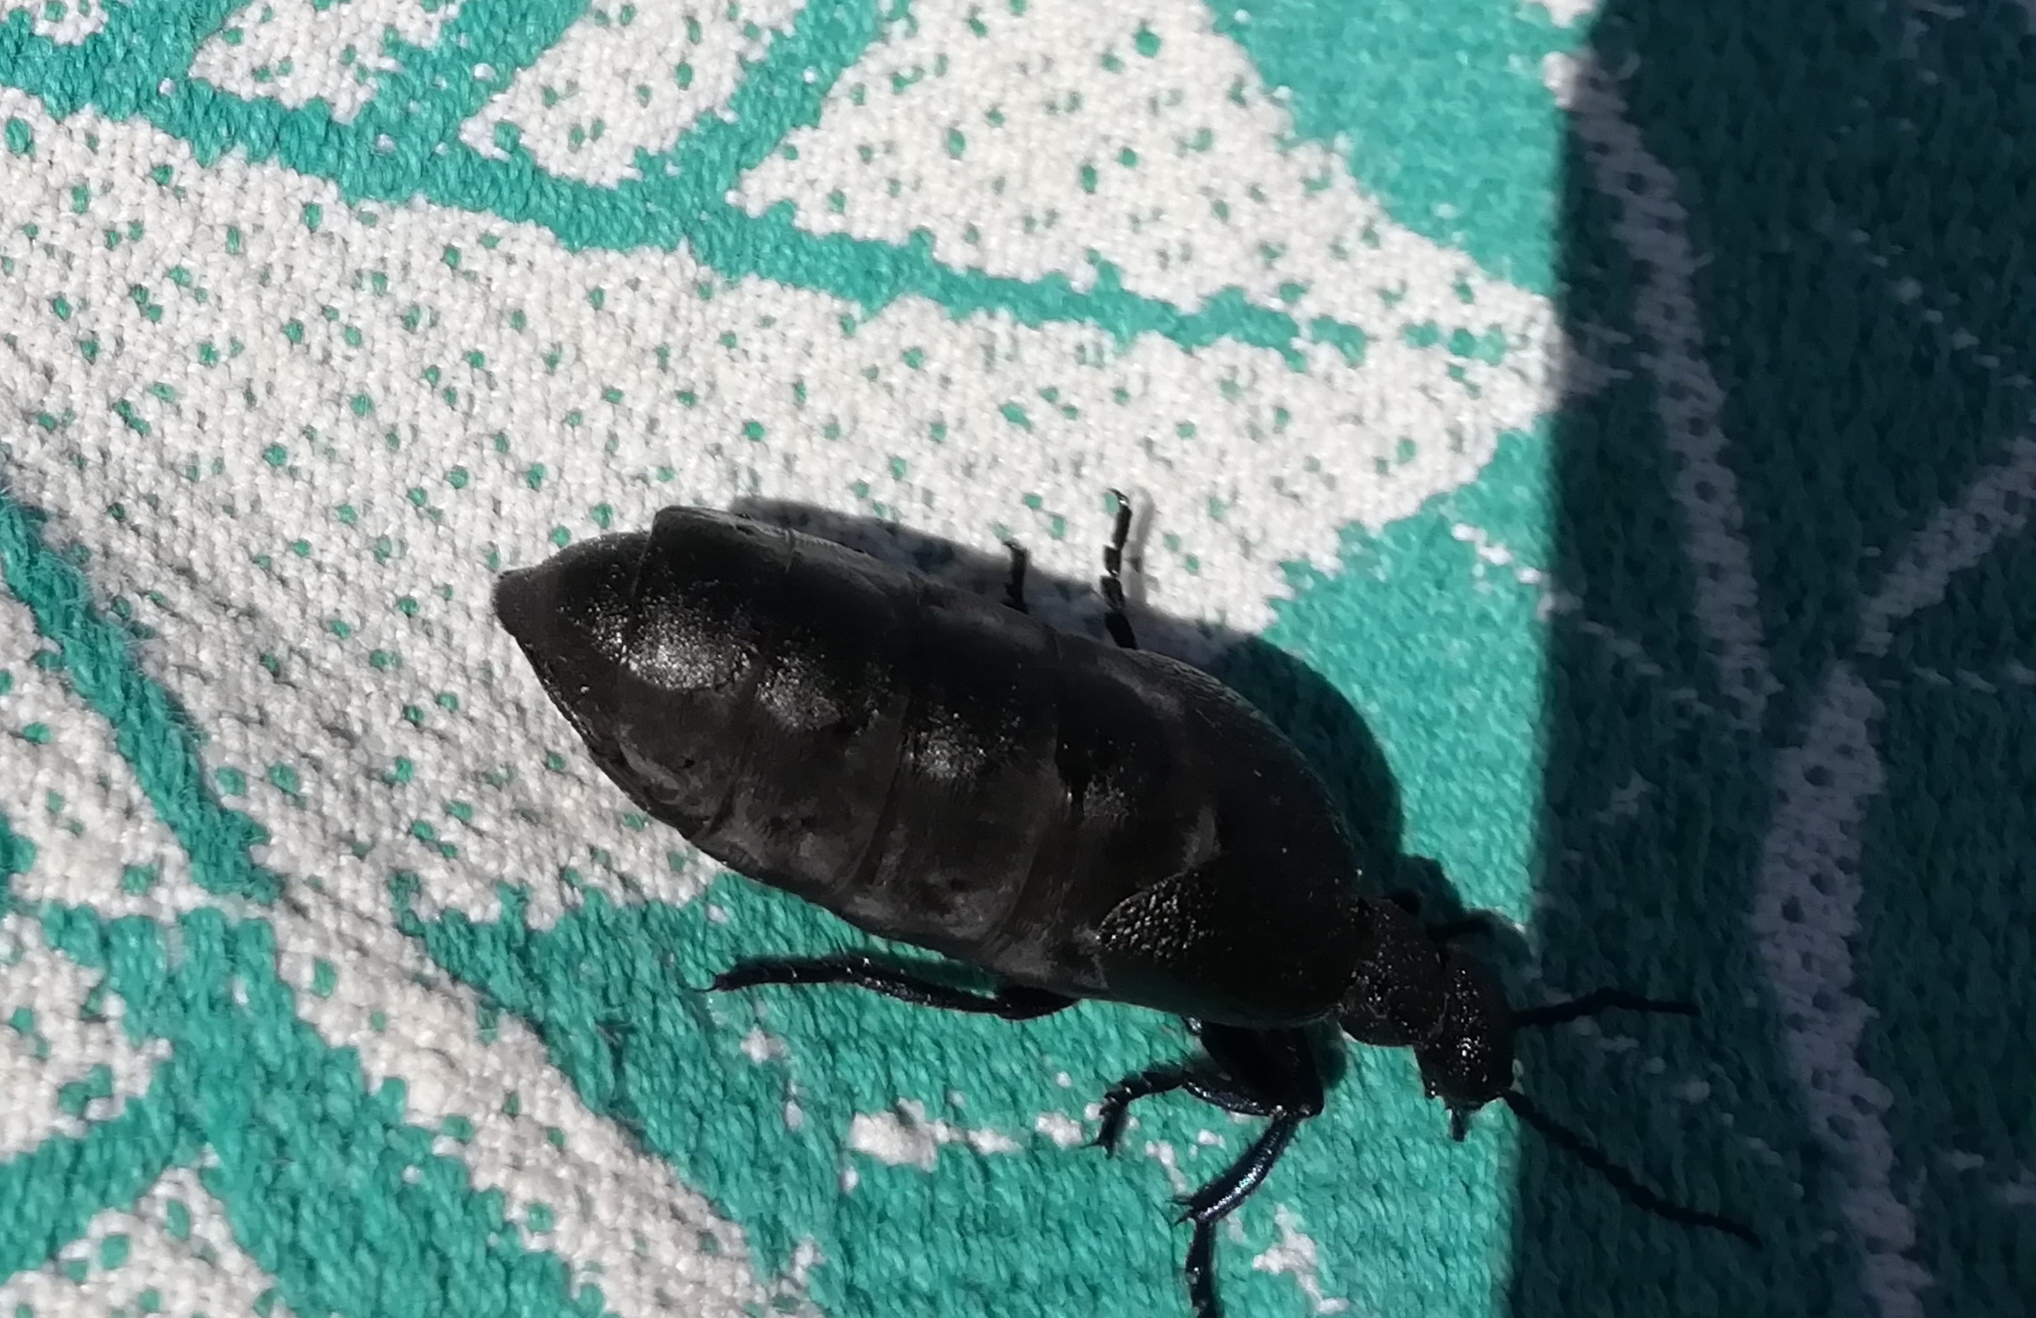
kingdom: Animalia
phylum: Arthropoda
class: Insecta
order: Coleoptera
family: Meloidae
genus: Meloe
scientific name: Meloe proscarabaeus
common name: Black oil-beetle
